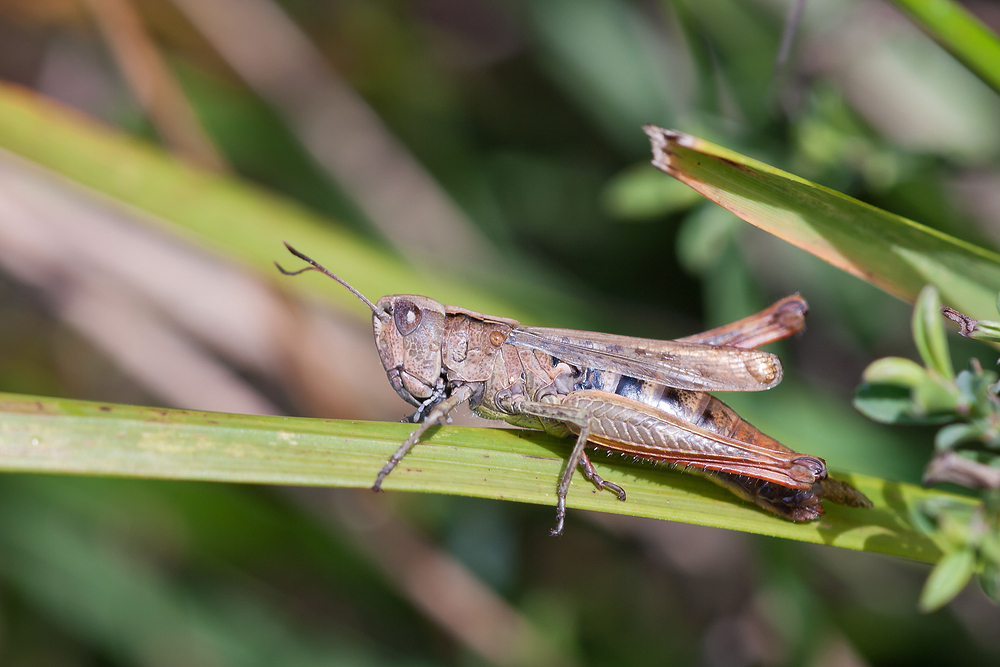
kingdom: Animalia
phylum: Arthropoda
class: Insecta
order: Orthoptera
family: Acrididae
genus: Gomphocerippus
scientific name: Gomphocerippus rufus
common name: Rufous grasshopper
